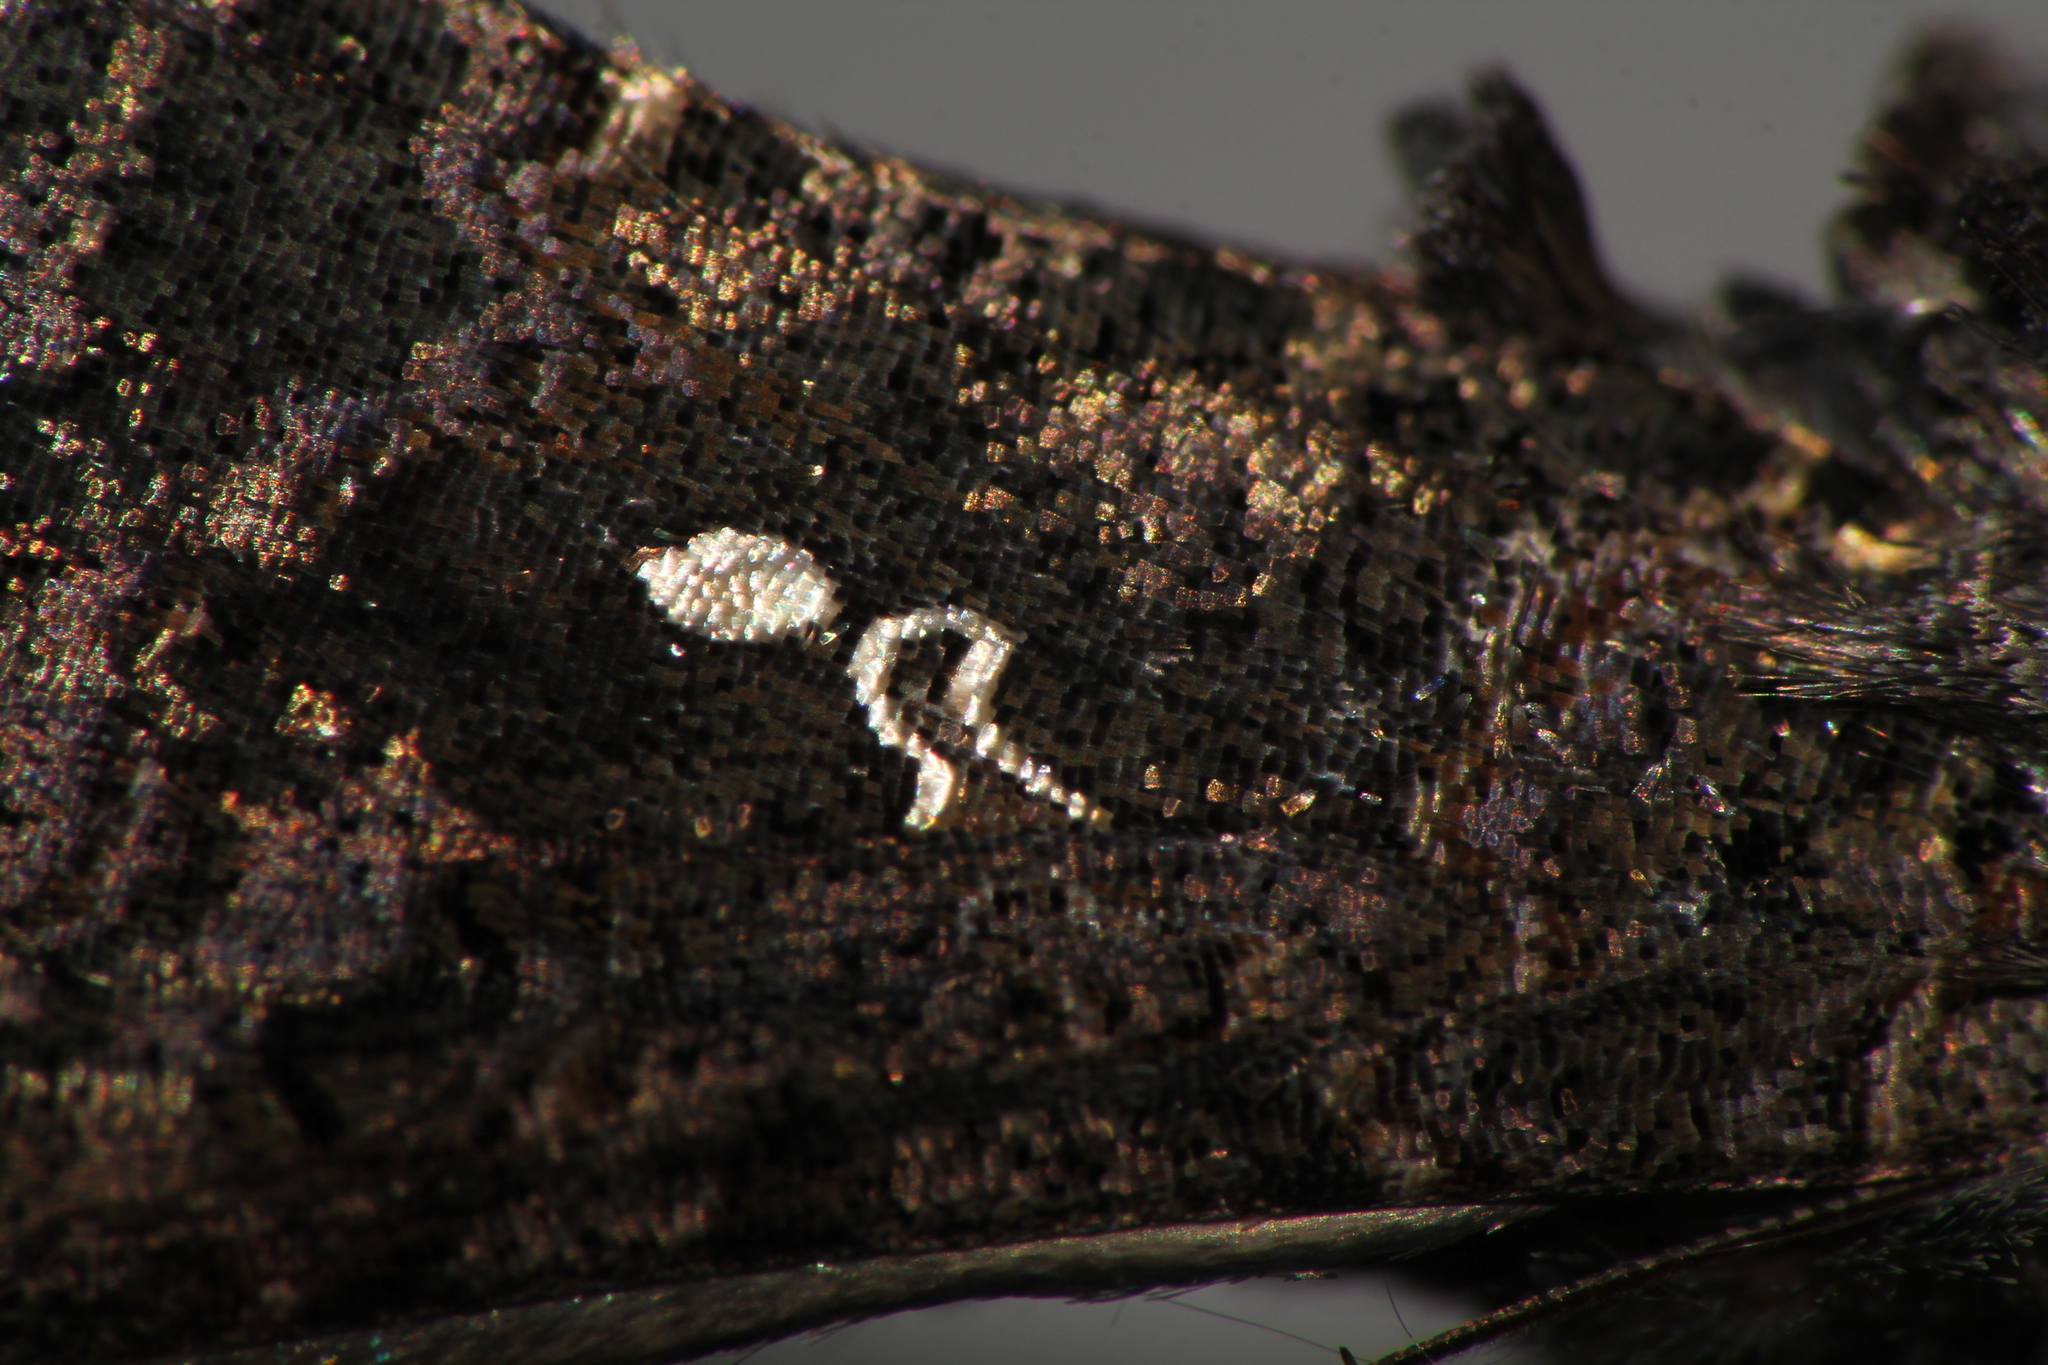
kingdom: Animalia
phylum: Arthropoda
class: Insecta
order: Lepidoptera
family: Noctuidae
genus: Ctenoplusia
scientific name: Ctenoplusia limbirena
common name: Scar bank gem
